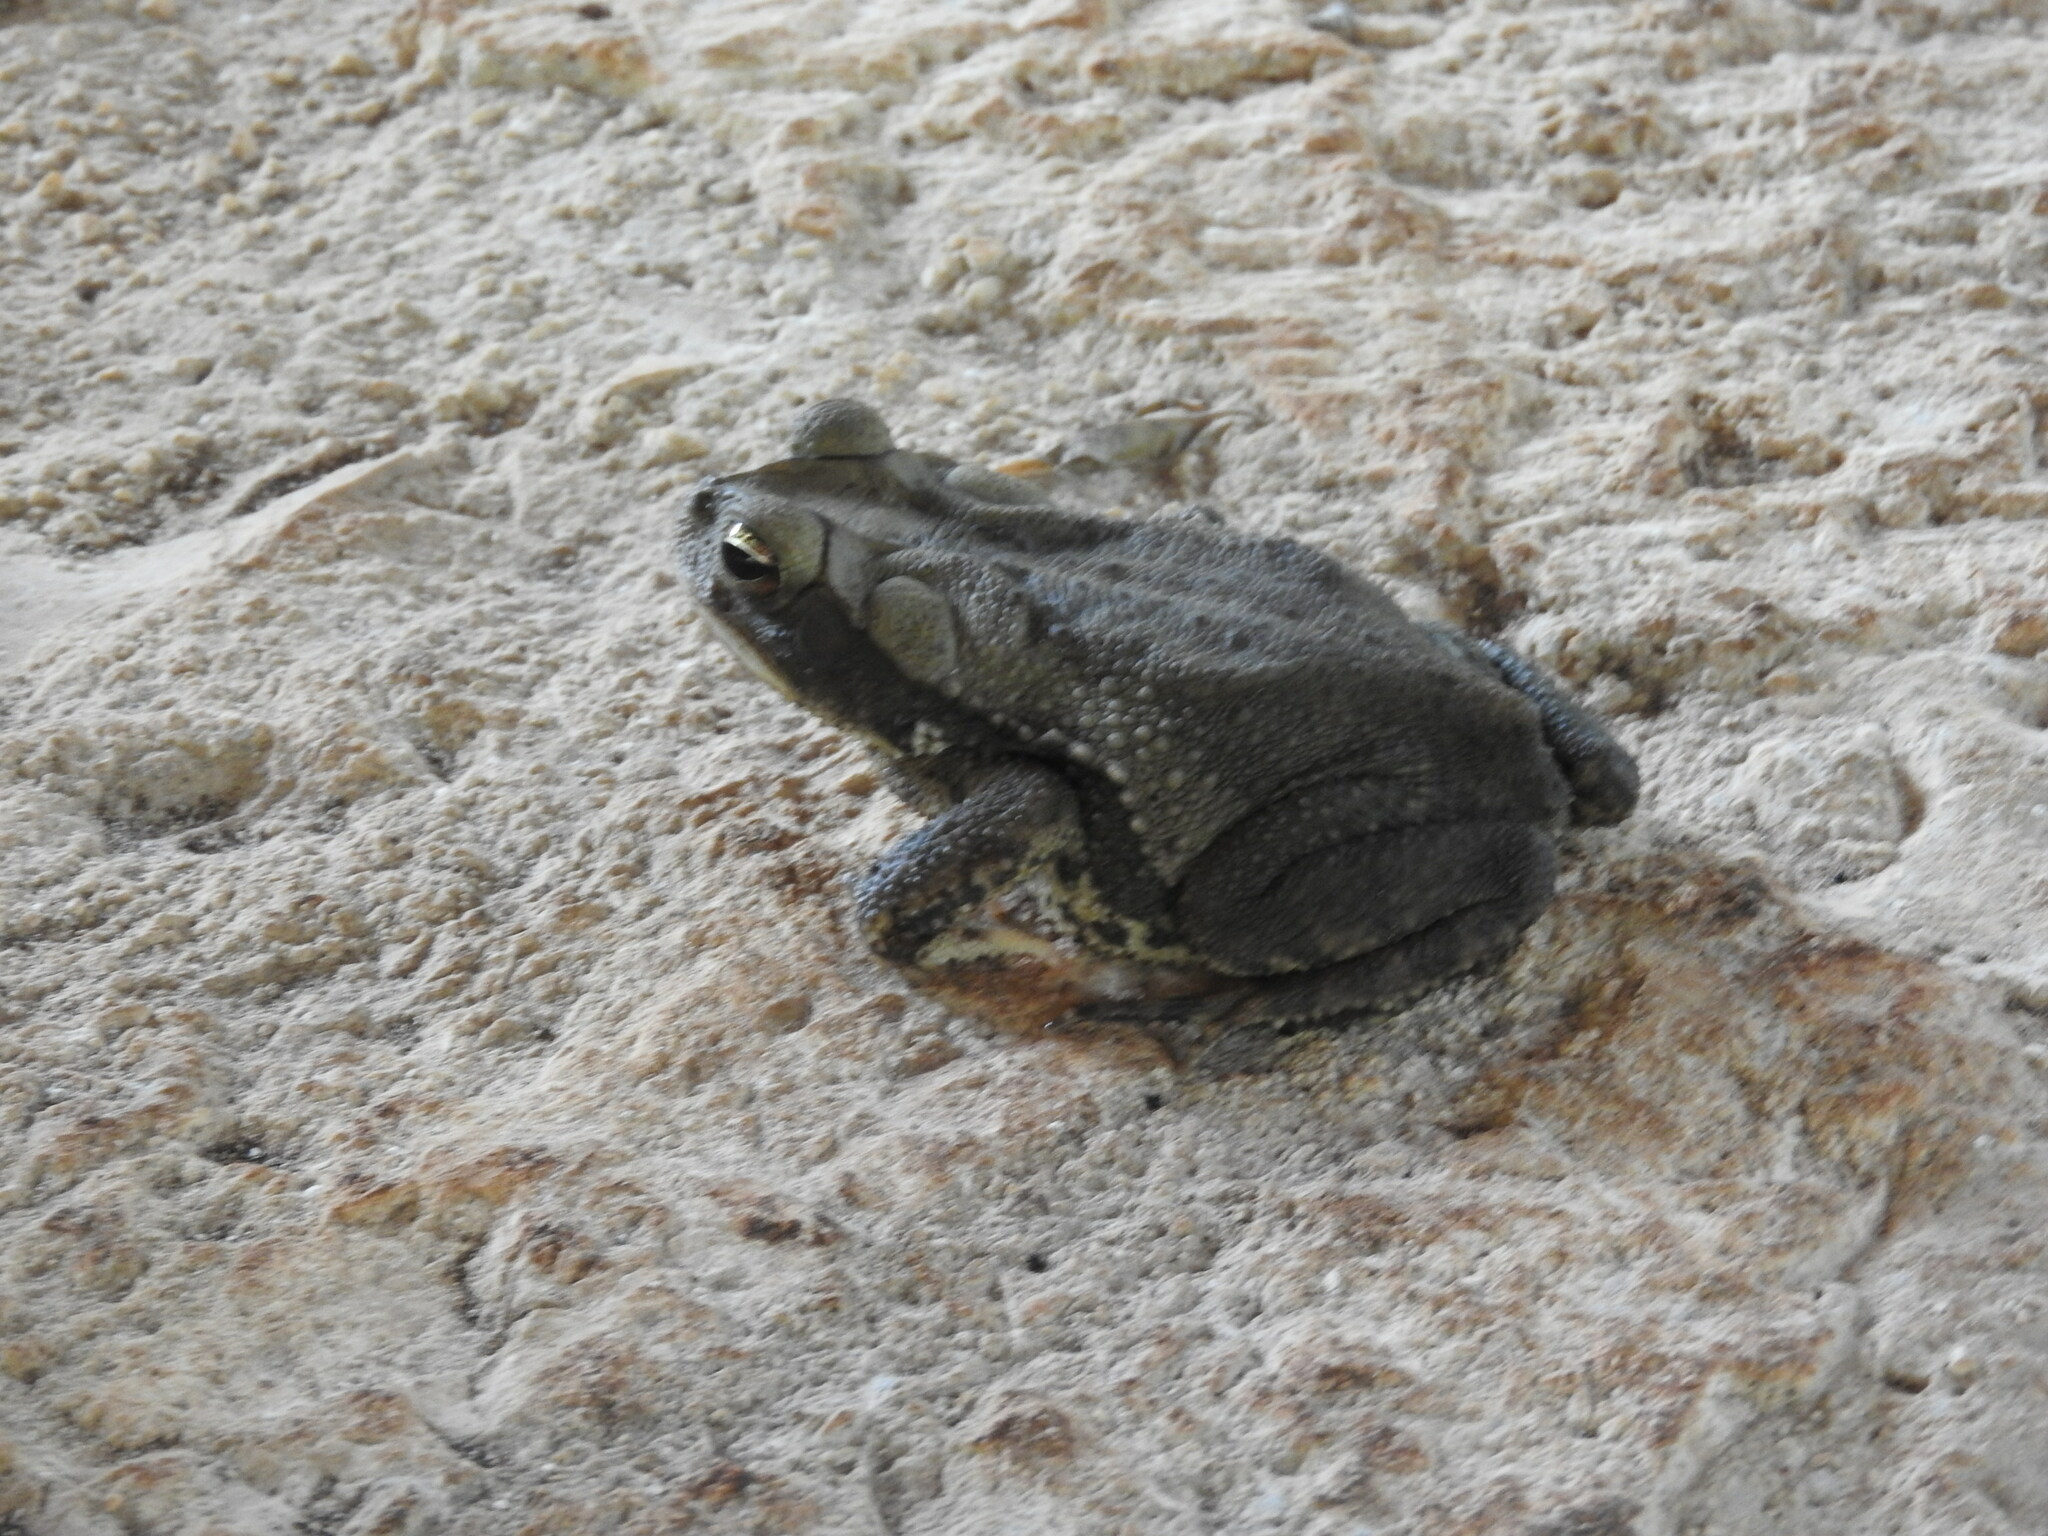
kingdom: Animalia
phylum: Chordata
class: Amphibia
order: Anura
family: Bufonidae
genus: Incilius
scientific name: Incilius valliceps
